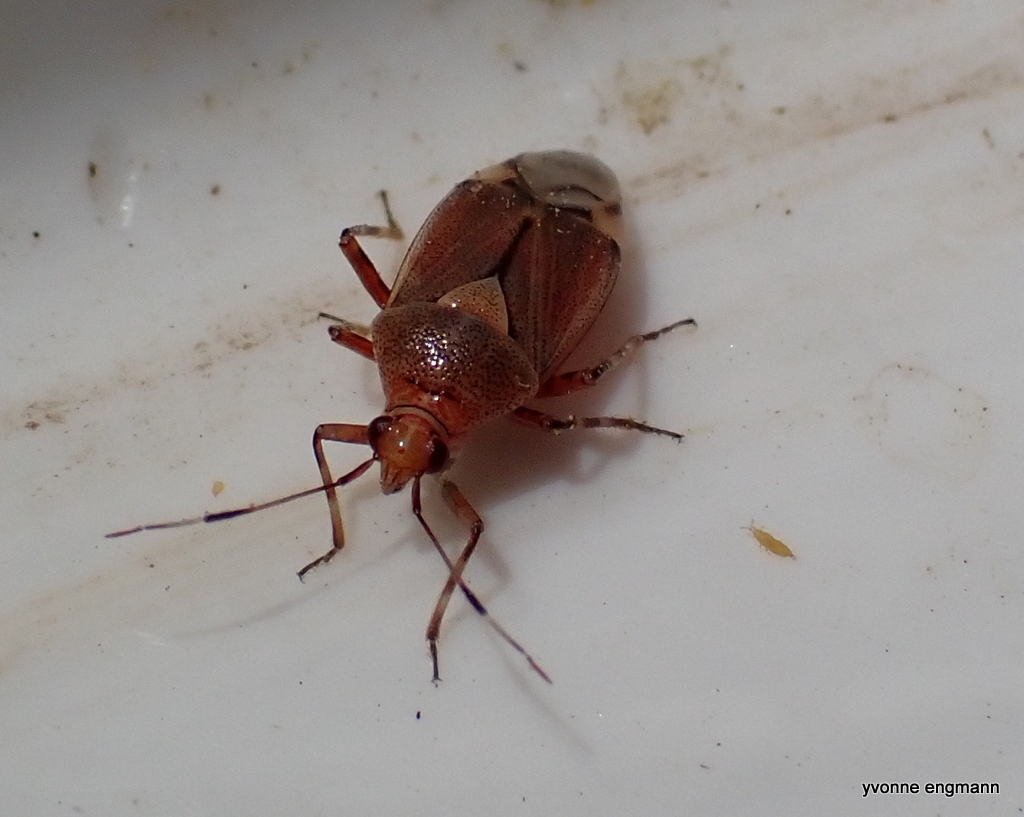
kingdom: Animalia
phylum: Arthropoda
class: Insecta
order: Hemiptera
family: Miridae
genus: Deraeocoris
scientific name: Deraeocoris flavilinea
